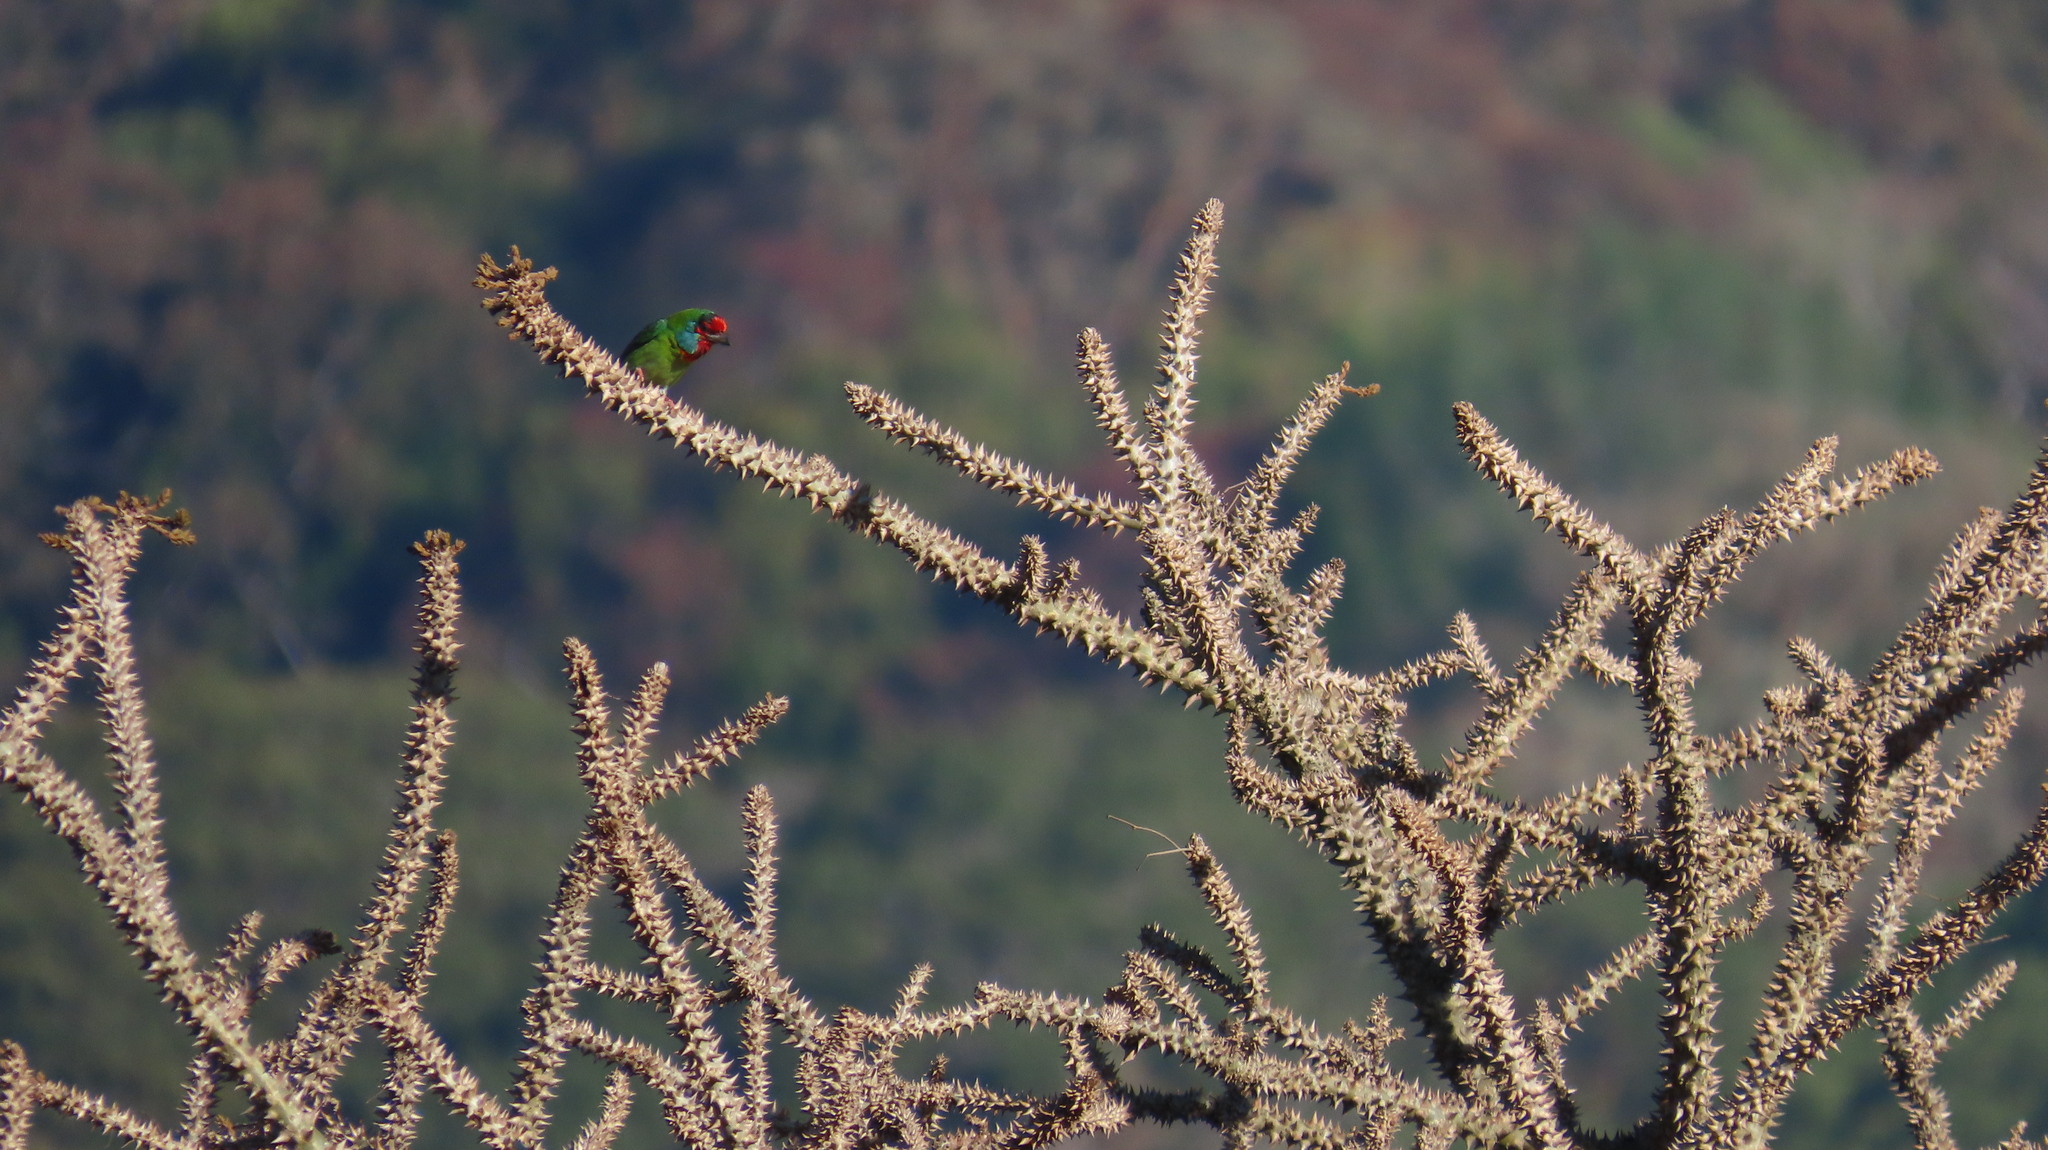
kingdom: Animalia
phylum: Chordata
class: Aves
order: Piciformes
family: Megalaimidae
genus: Psilopogon
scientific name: Psilopogon malabaricus
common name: Malabar barbet
